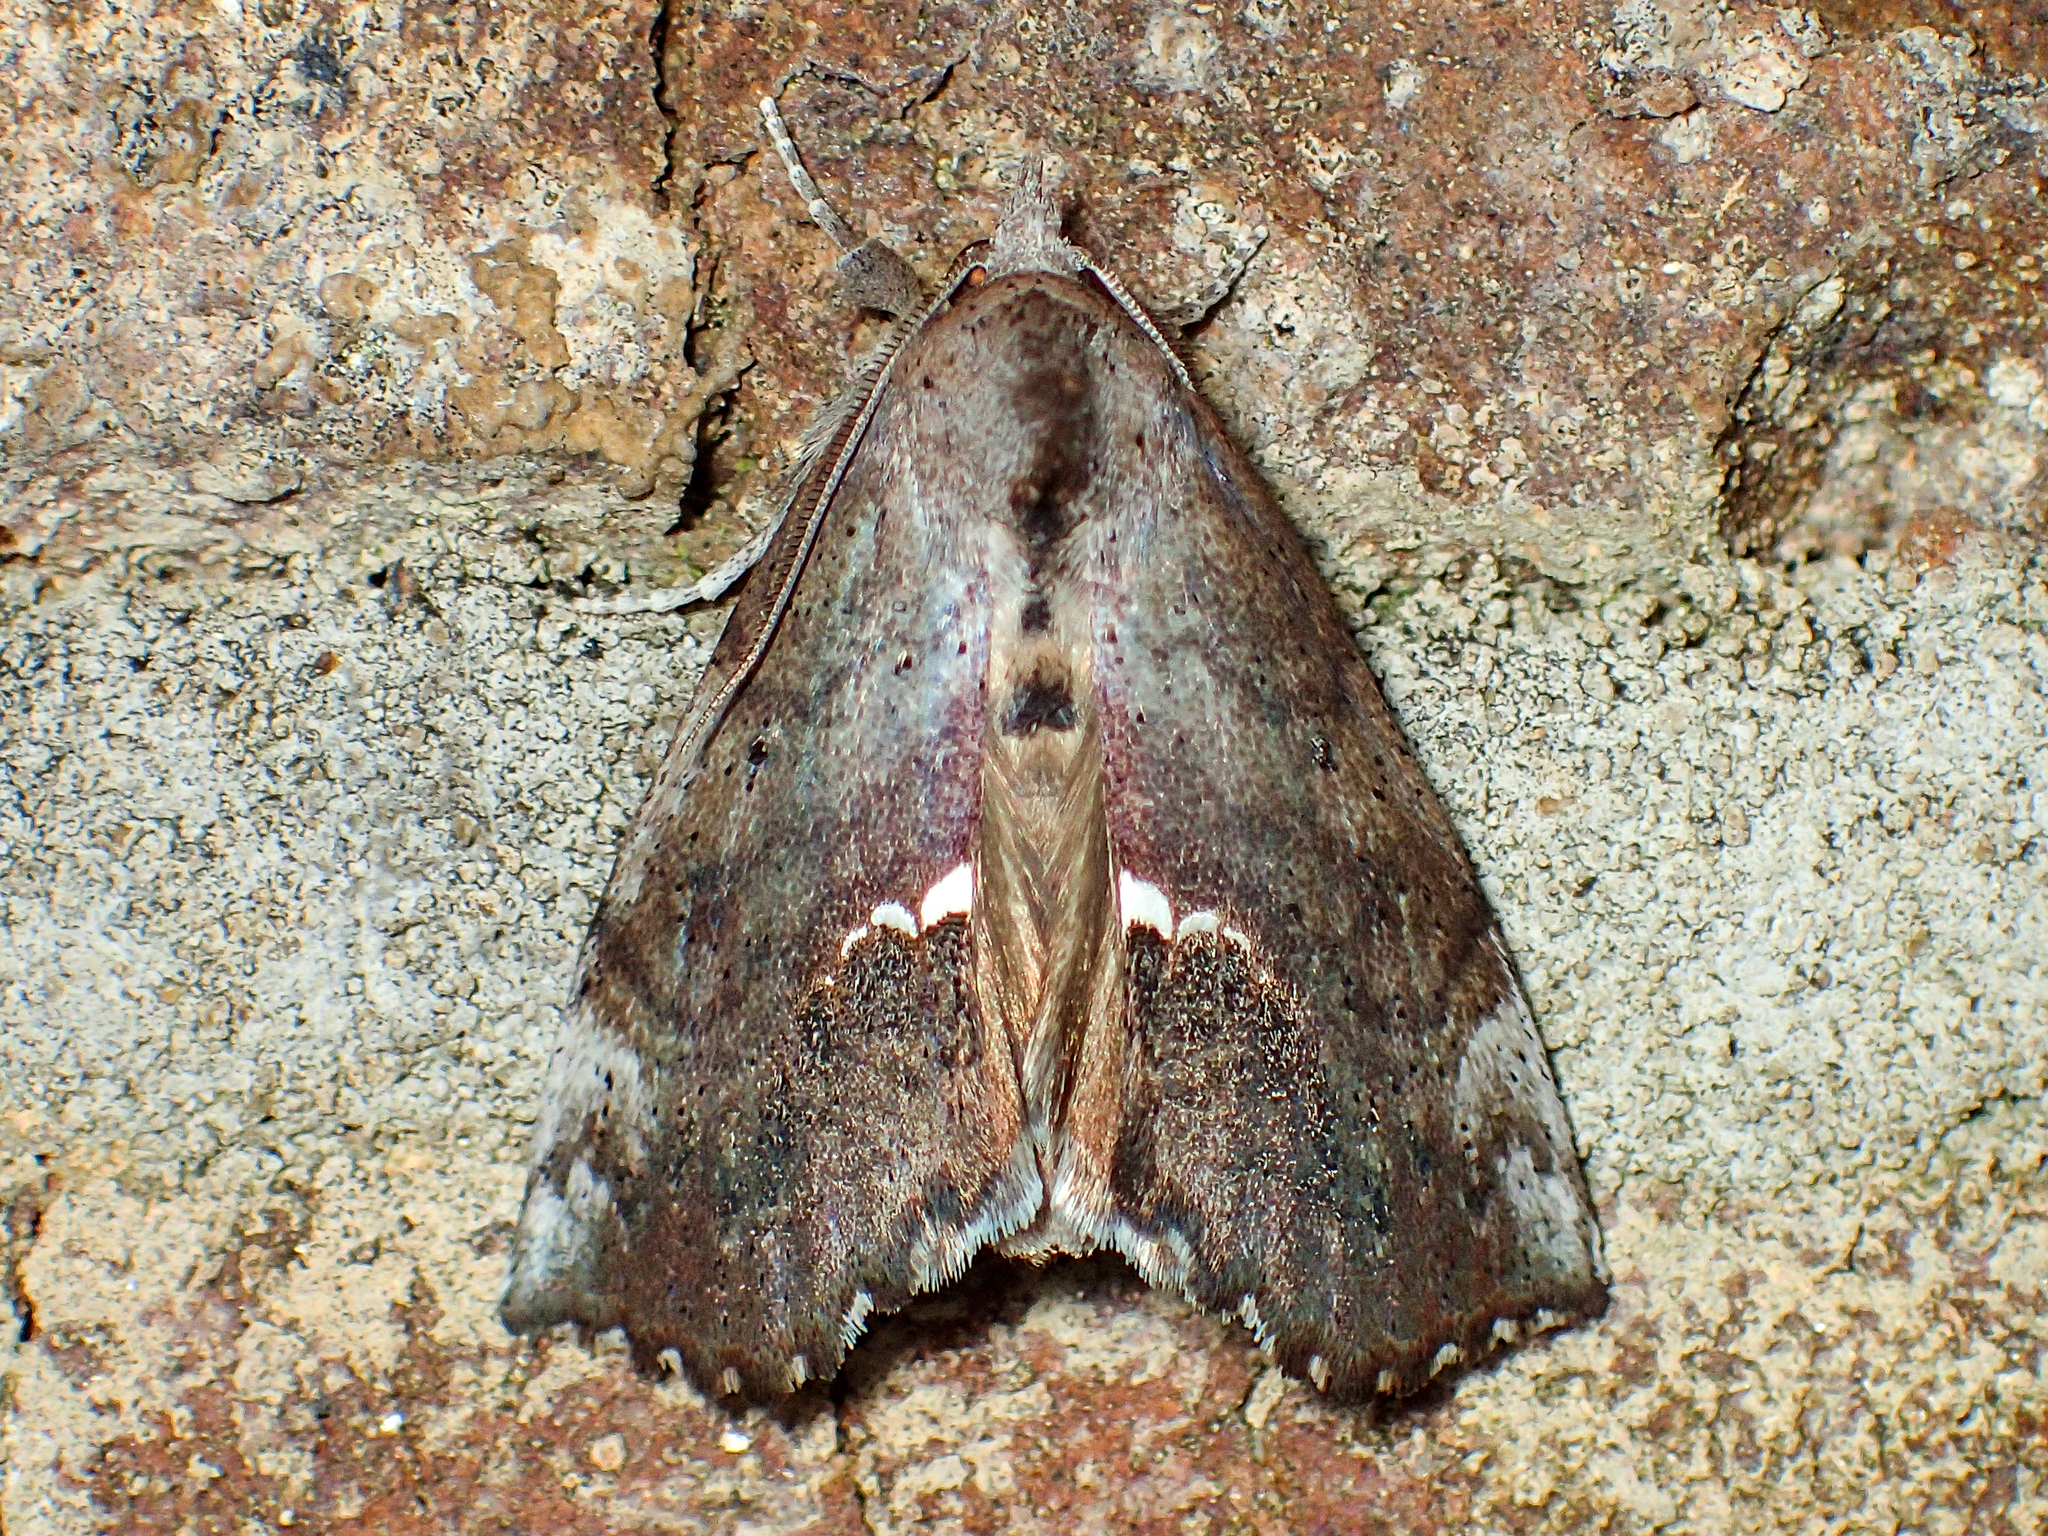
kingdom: Animalia
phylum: Arthropoda
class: Insecta
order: Lepidoptera
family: Erebidae
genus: Hypsoropha
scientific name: Hypsoropha hormos
